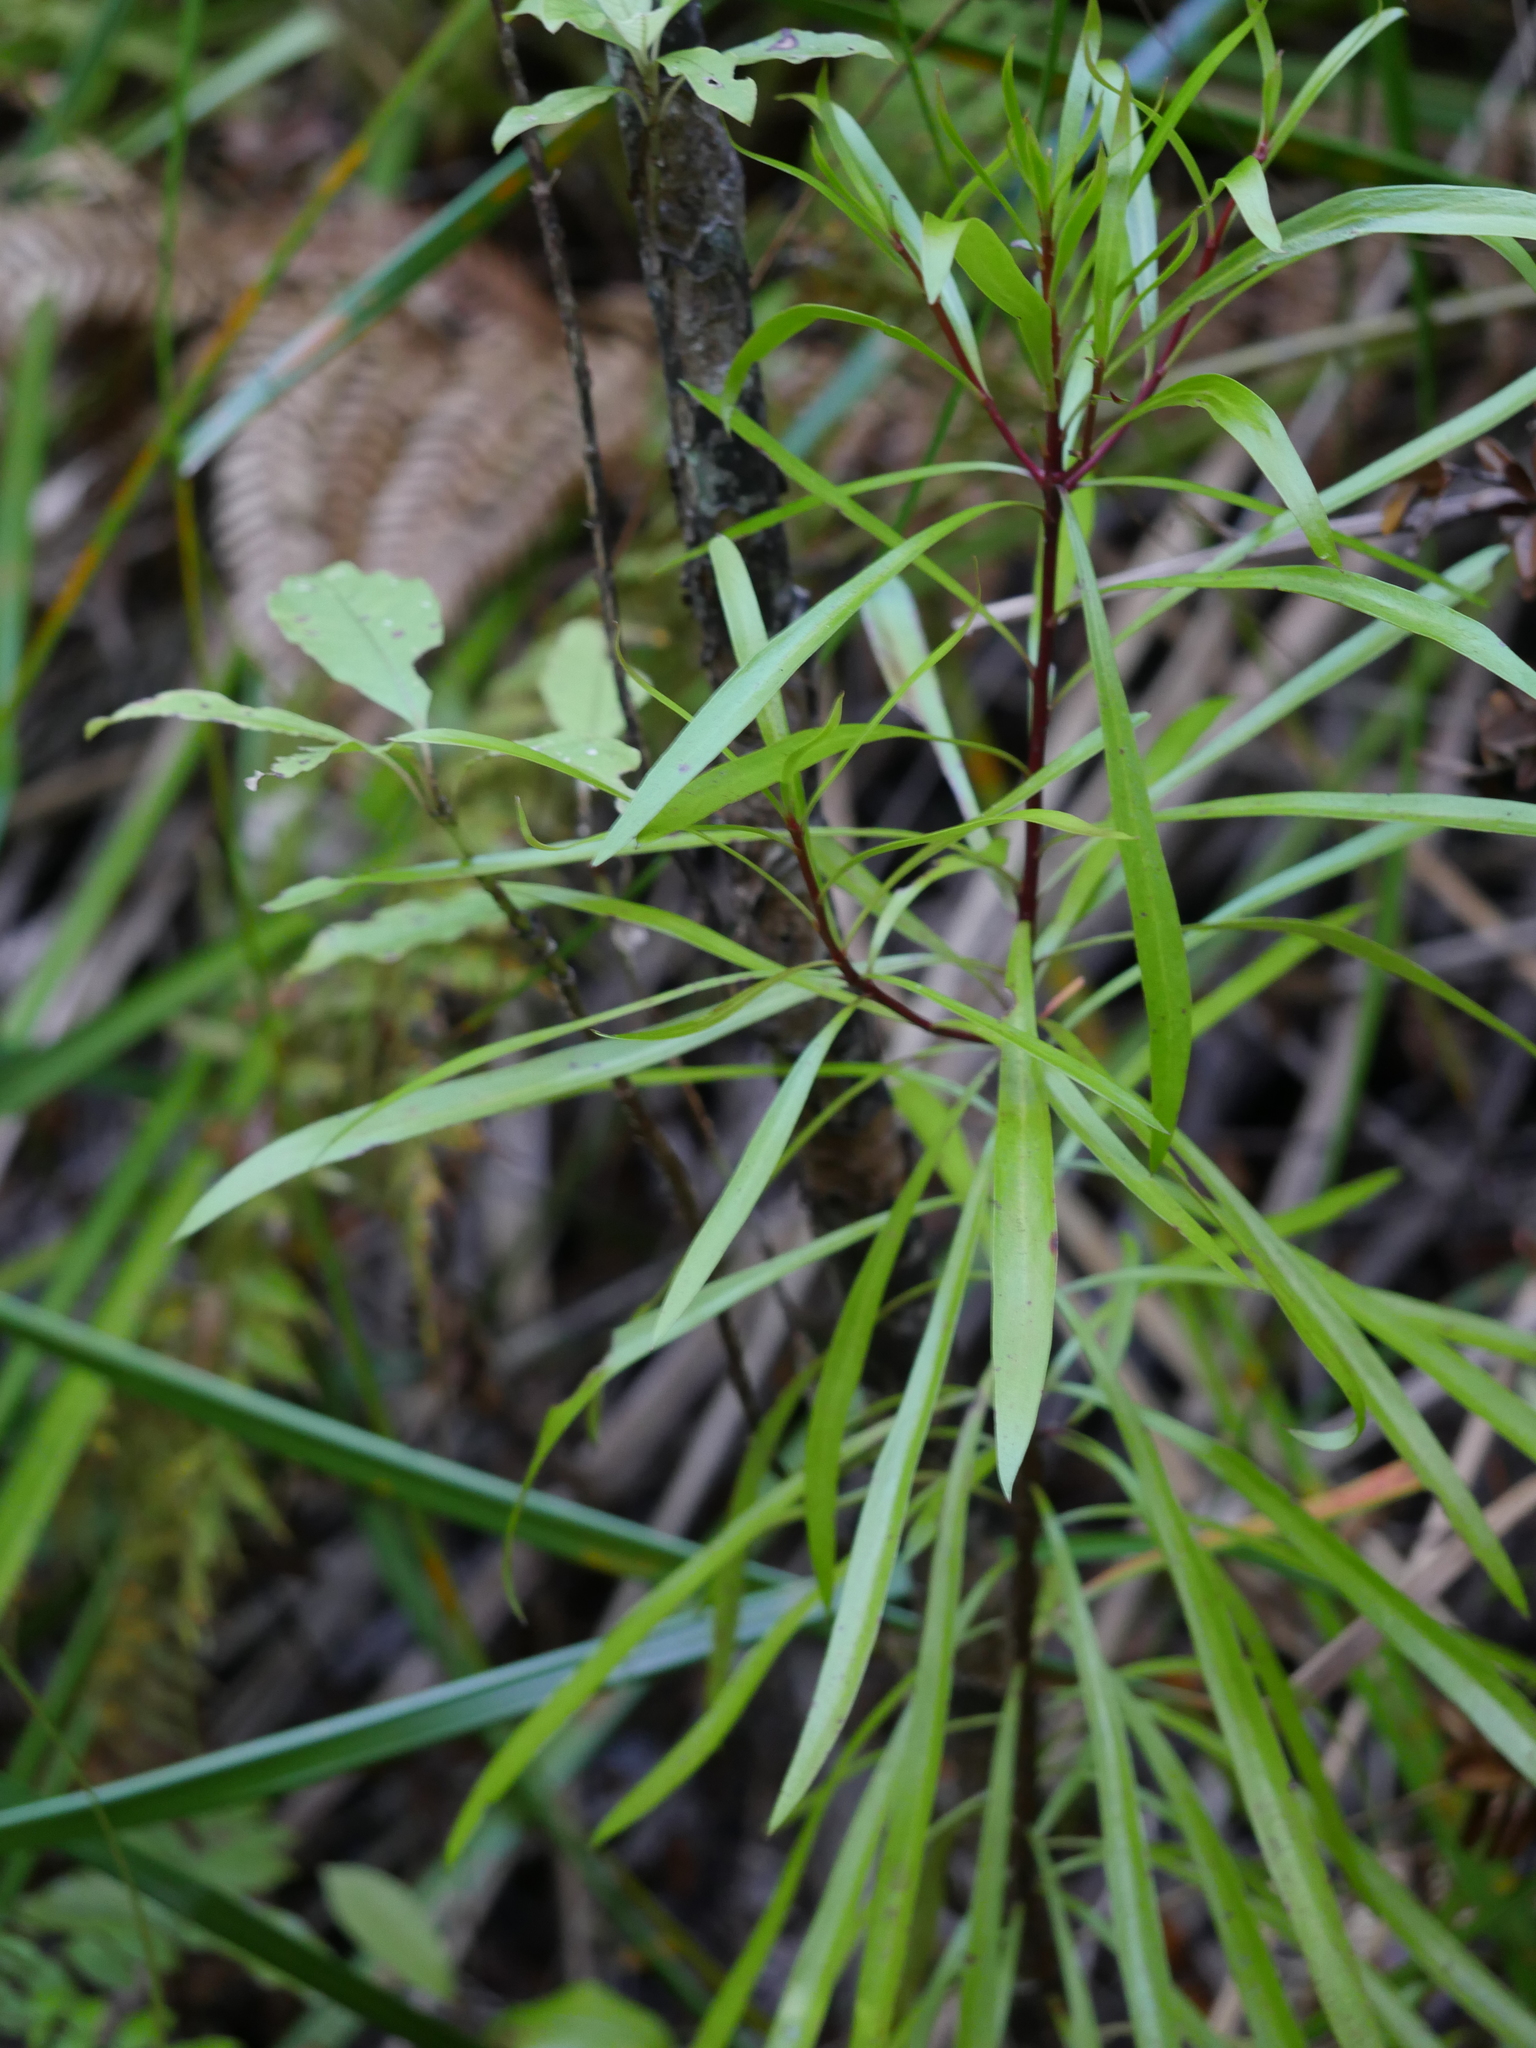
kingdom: Plantae
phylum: Tracheophyta
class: Magnoliopsida
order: Proteales
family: Proteaceae
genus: Toronia
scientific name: Toronia toru
